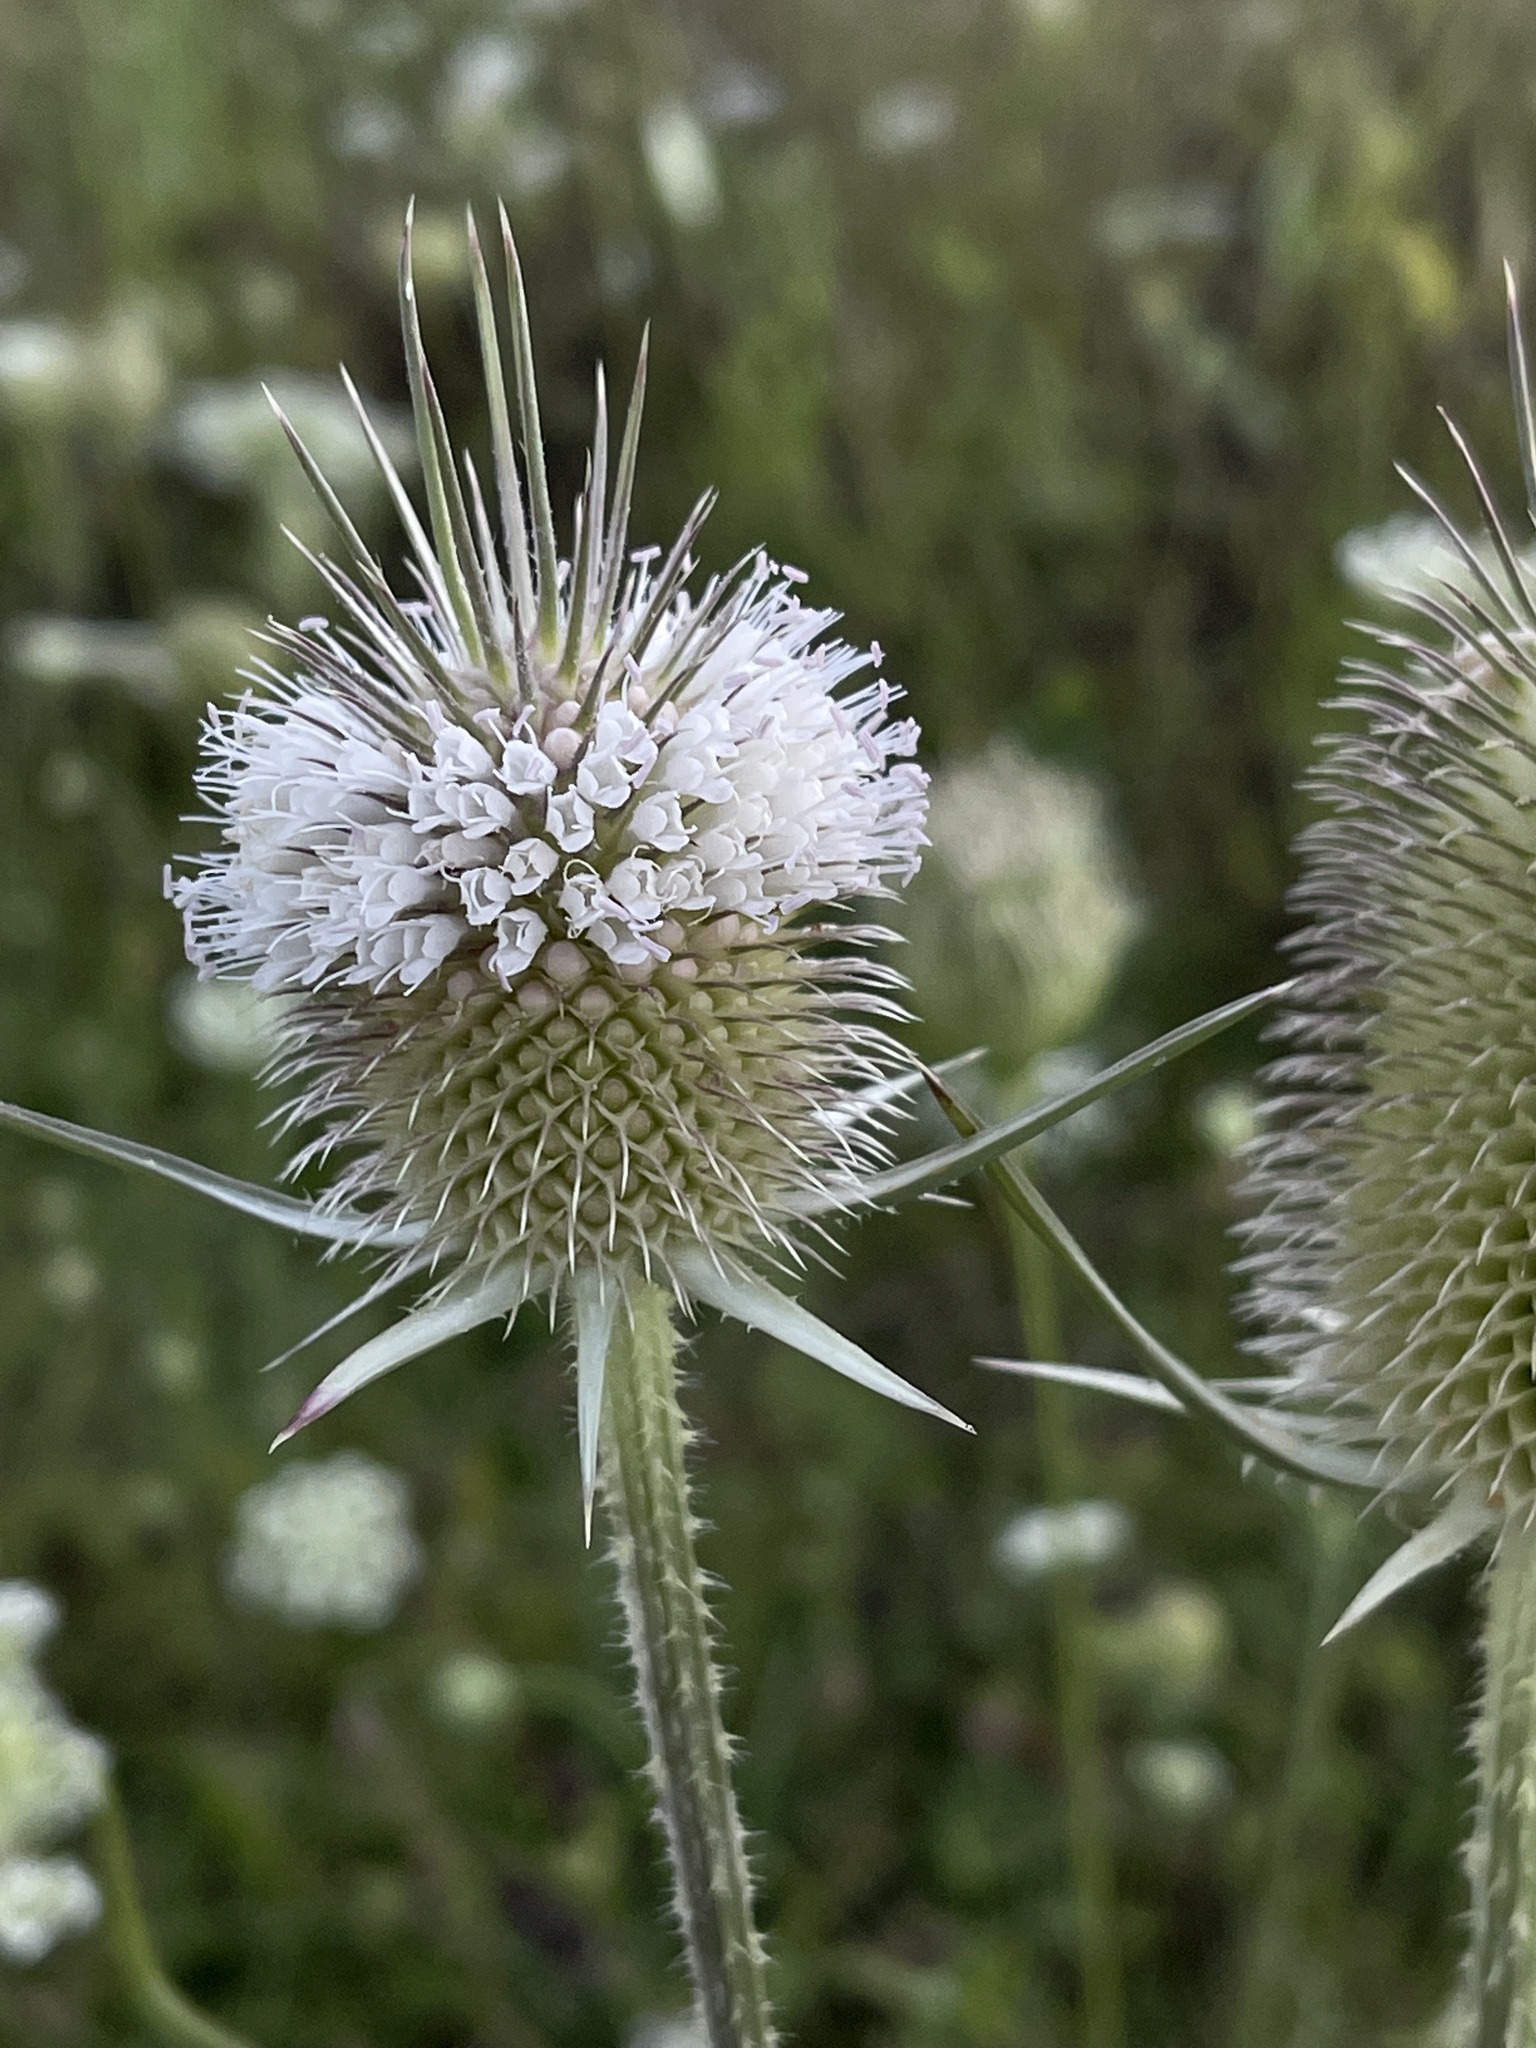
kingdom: Plantae
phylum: Tracheophyta
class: Magnoliopsida
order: Dipsacales
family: Caprifoliaceae
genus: Dipsacus
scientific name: Dipsacus laciniatus
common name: Cut-leaved teasel
